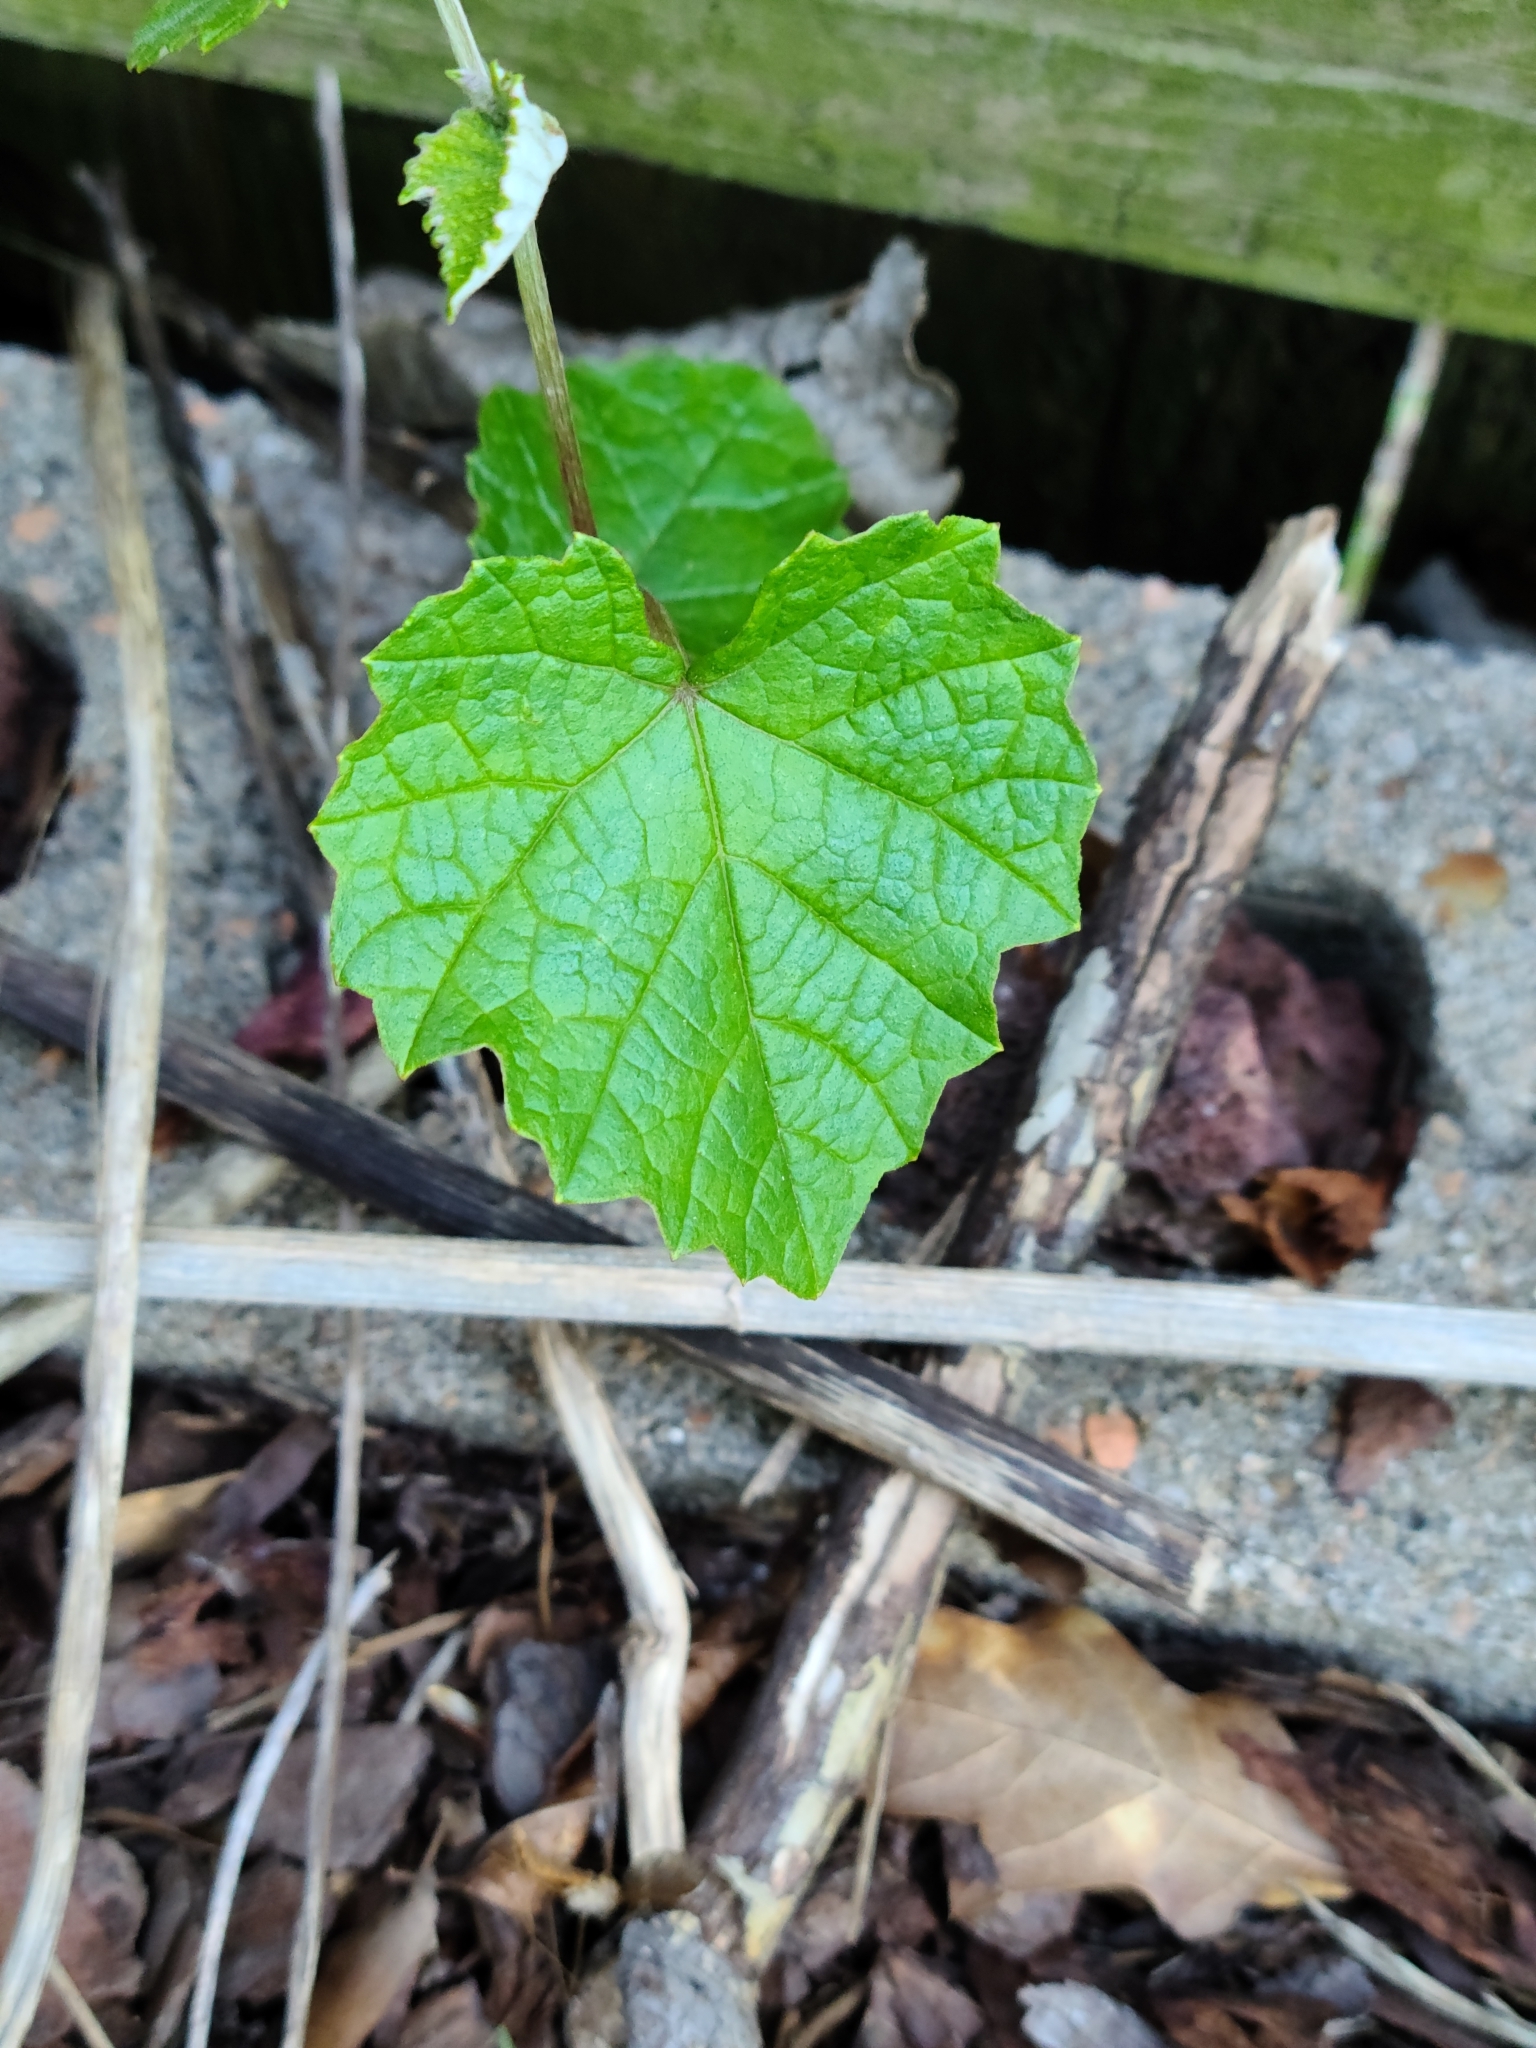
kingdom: Plantae
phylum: Tracheophyta
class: Magnoliopsida
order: Vitales
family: Vitaceae
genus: Vitis
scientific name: Vitis rotundifolia
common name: Muscadine grape
